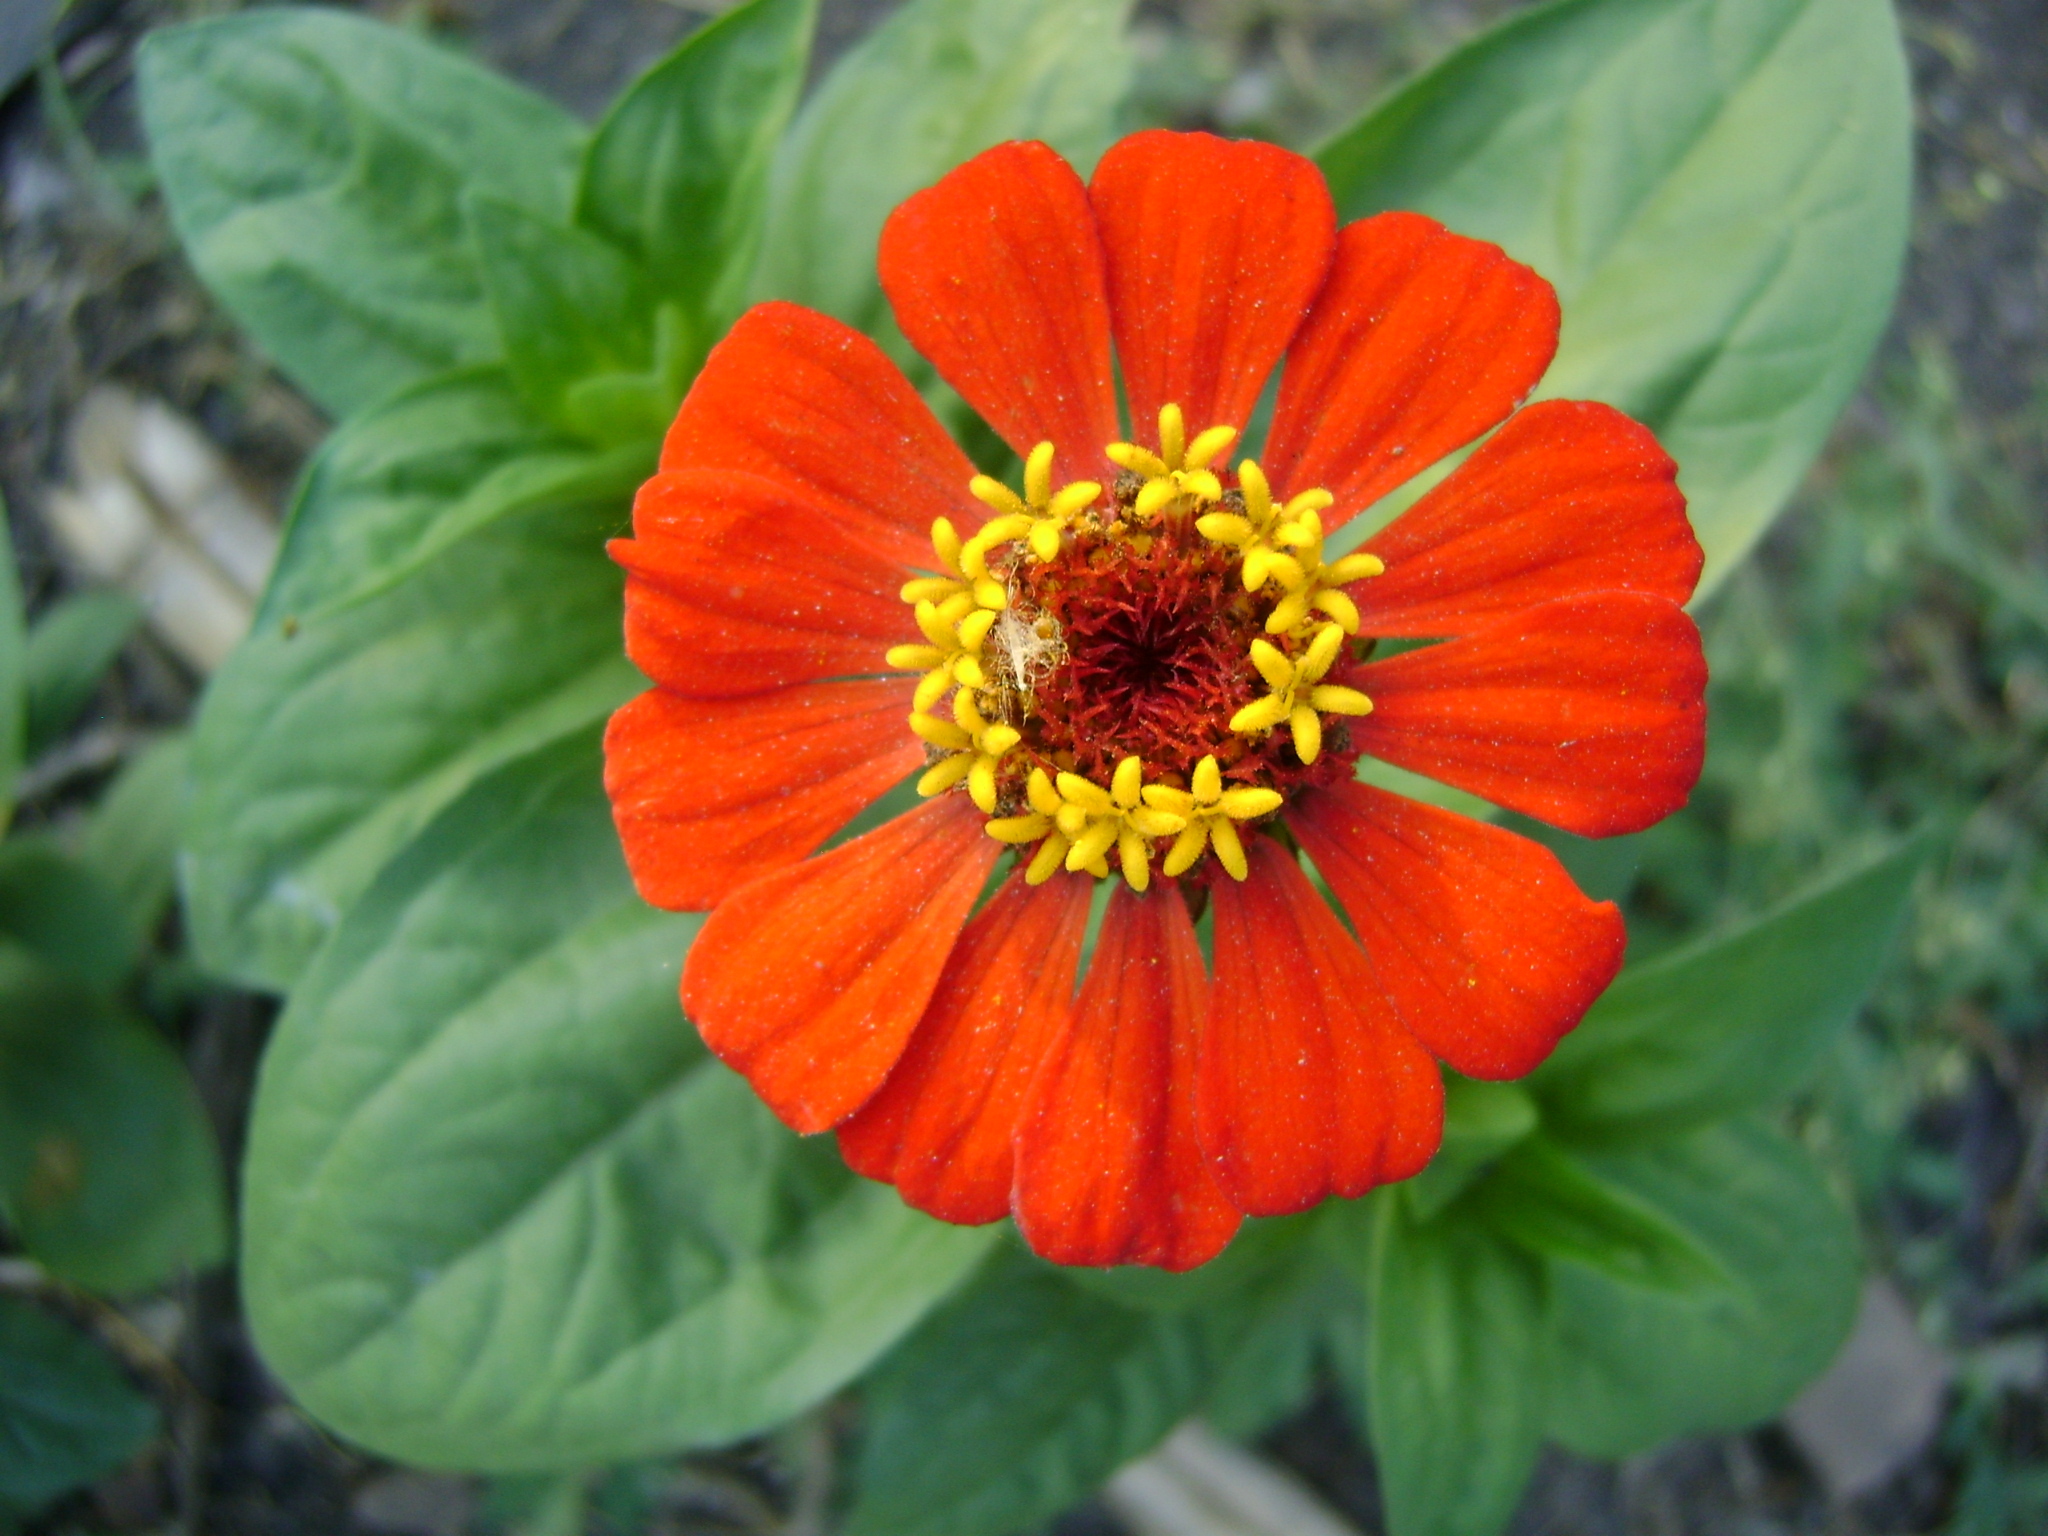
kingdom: Plantae
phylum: Tracheophyta
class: Magnoliopsida
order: Asterales
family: Asteraceae
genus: Zinnia
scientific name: Zinnia elegans
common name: Youth-and-age
